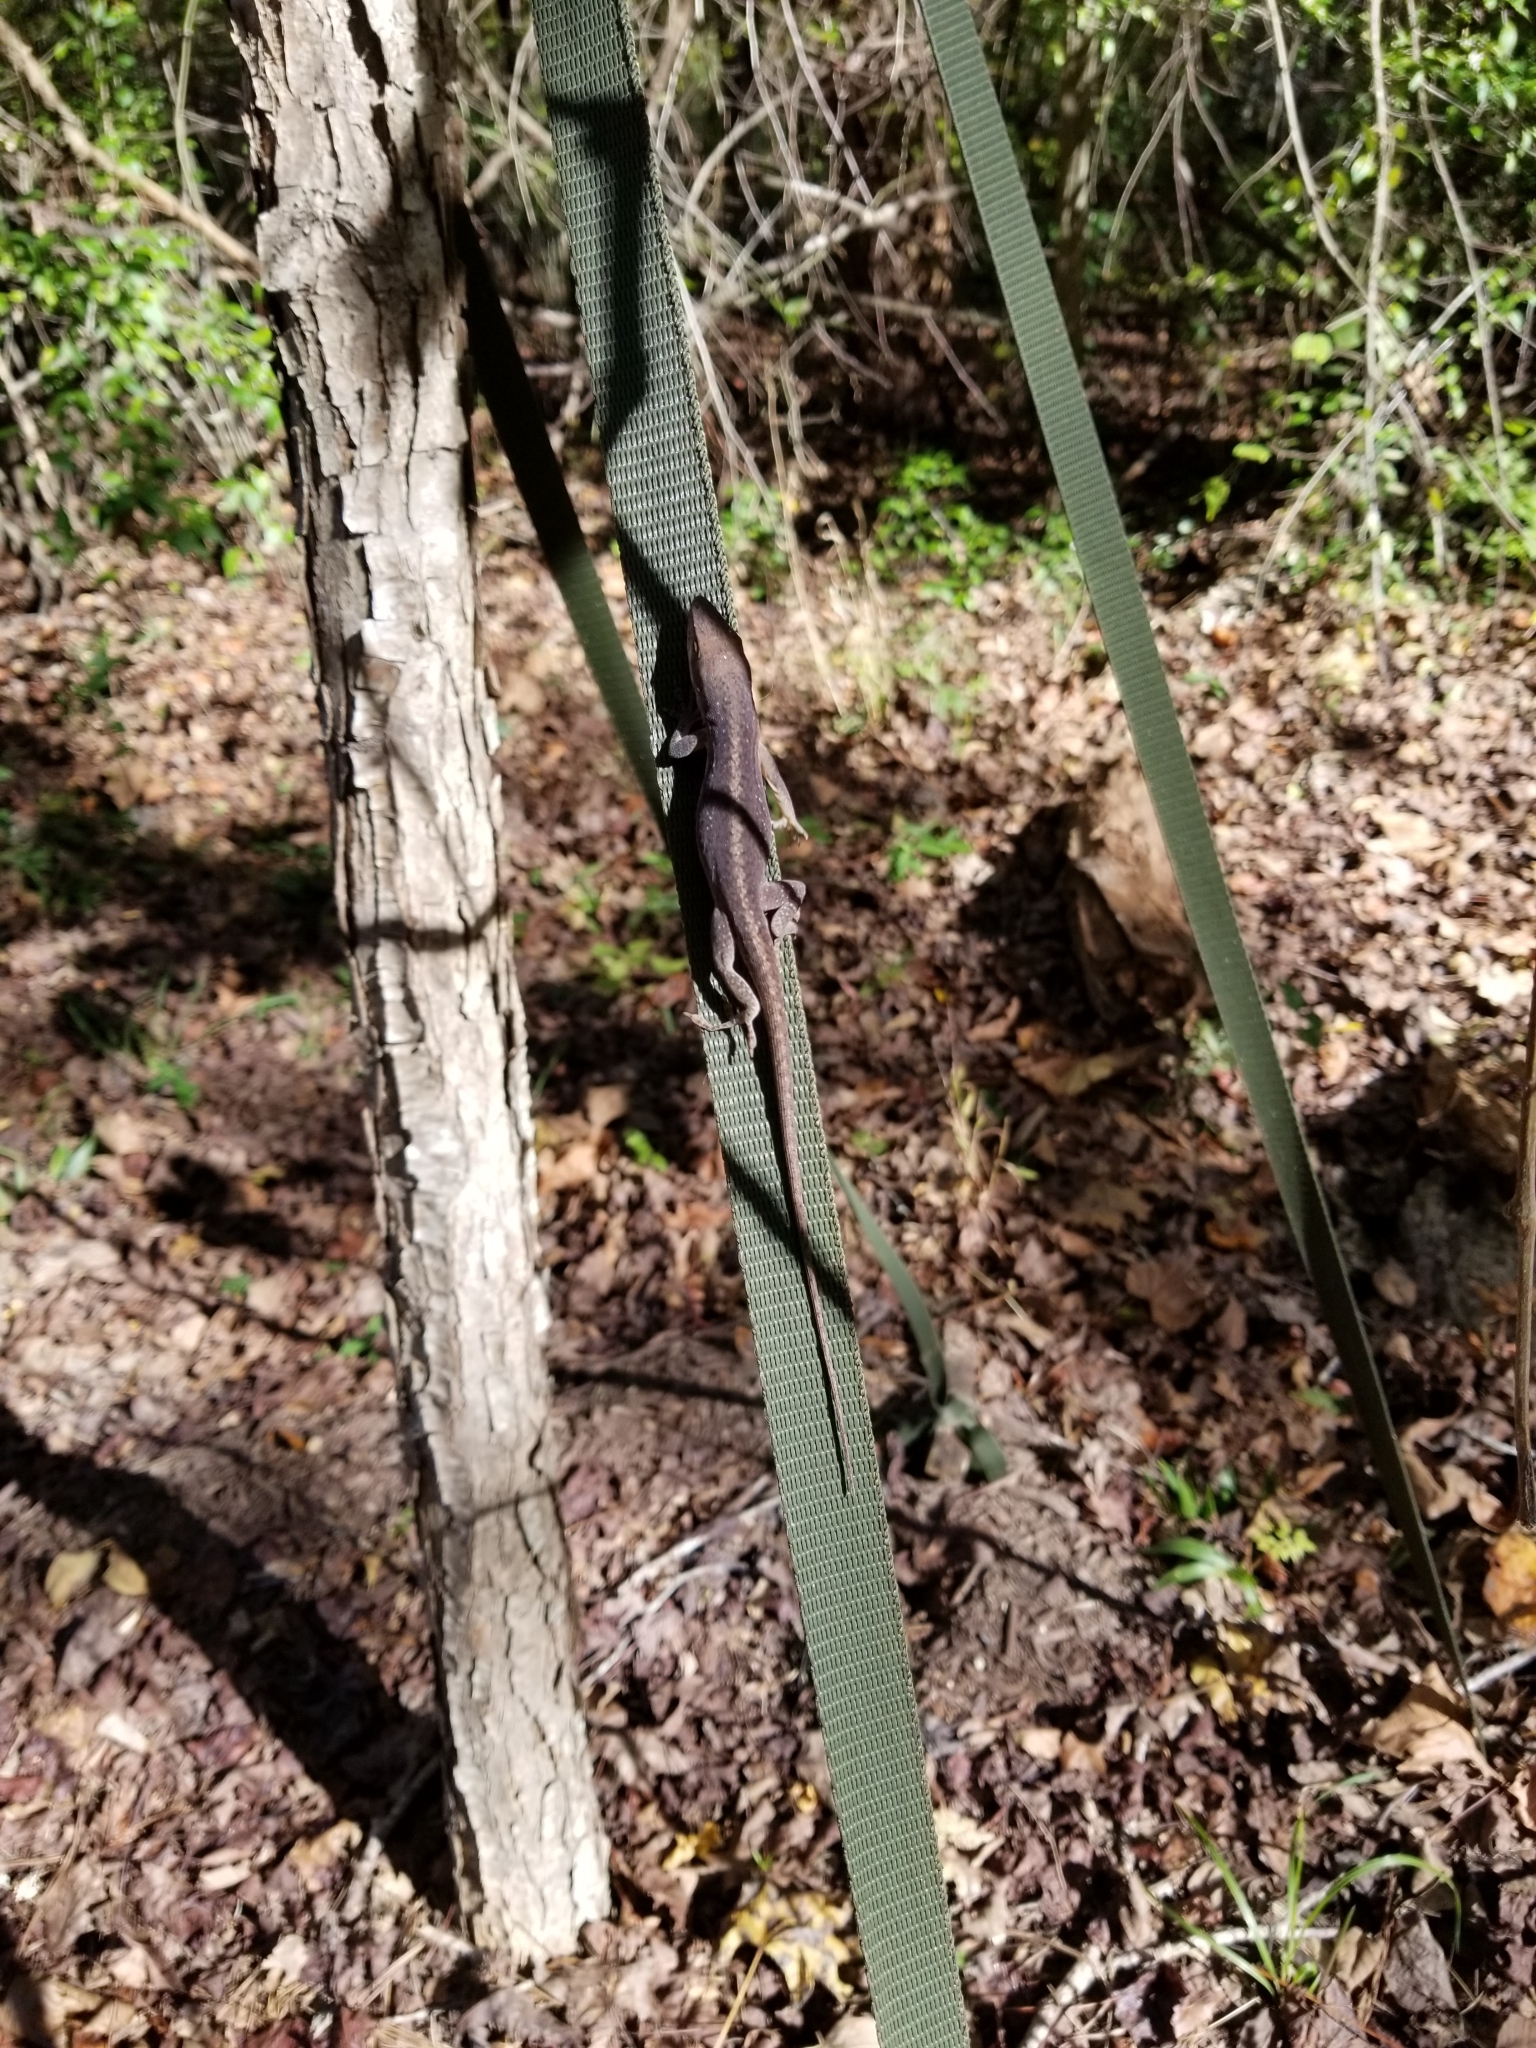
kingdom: Animalia
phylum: Chordata
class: Squamata
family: Dactyloidae
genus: Anolis
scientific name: Anolis carolinensis
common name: Green anole
